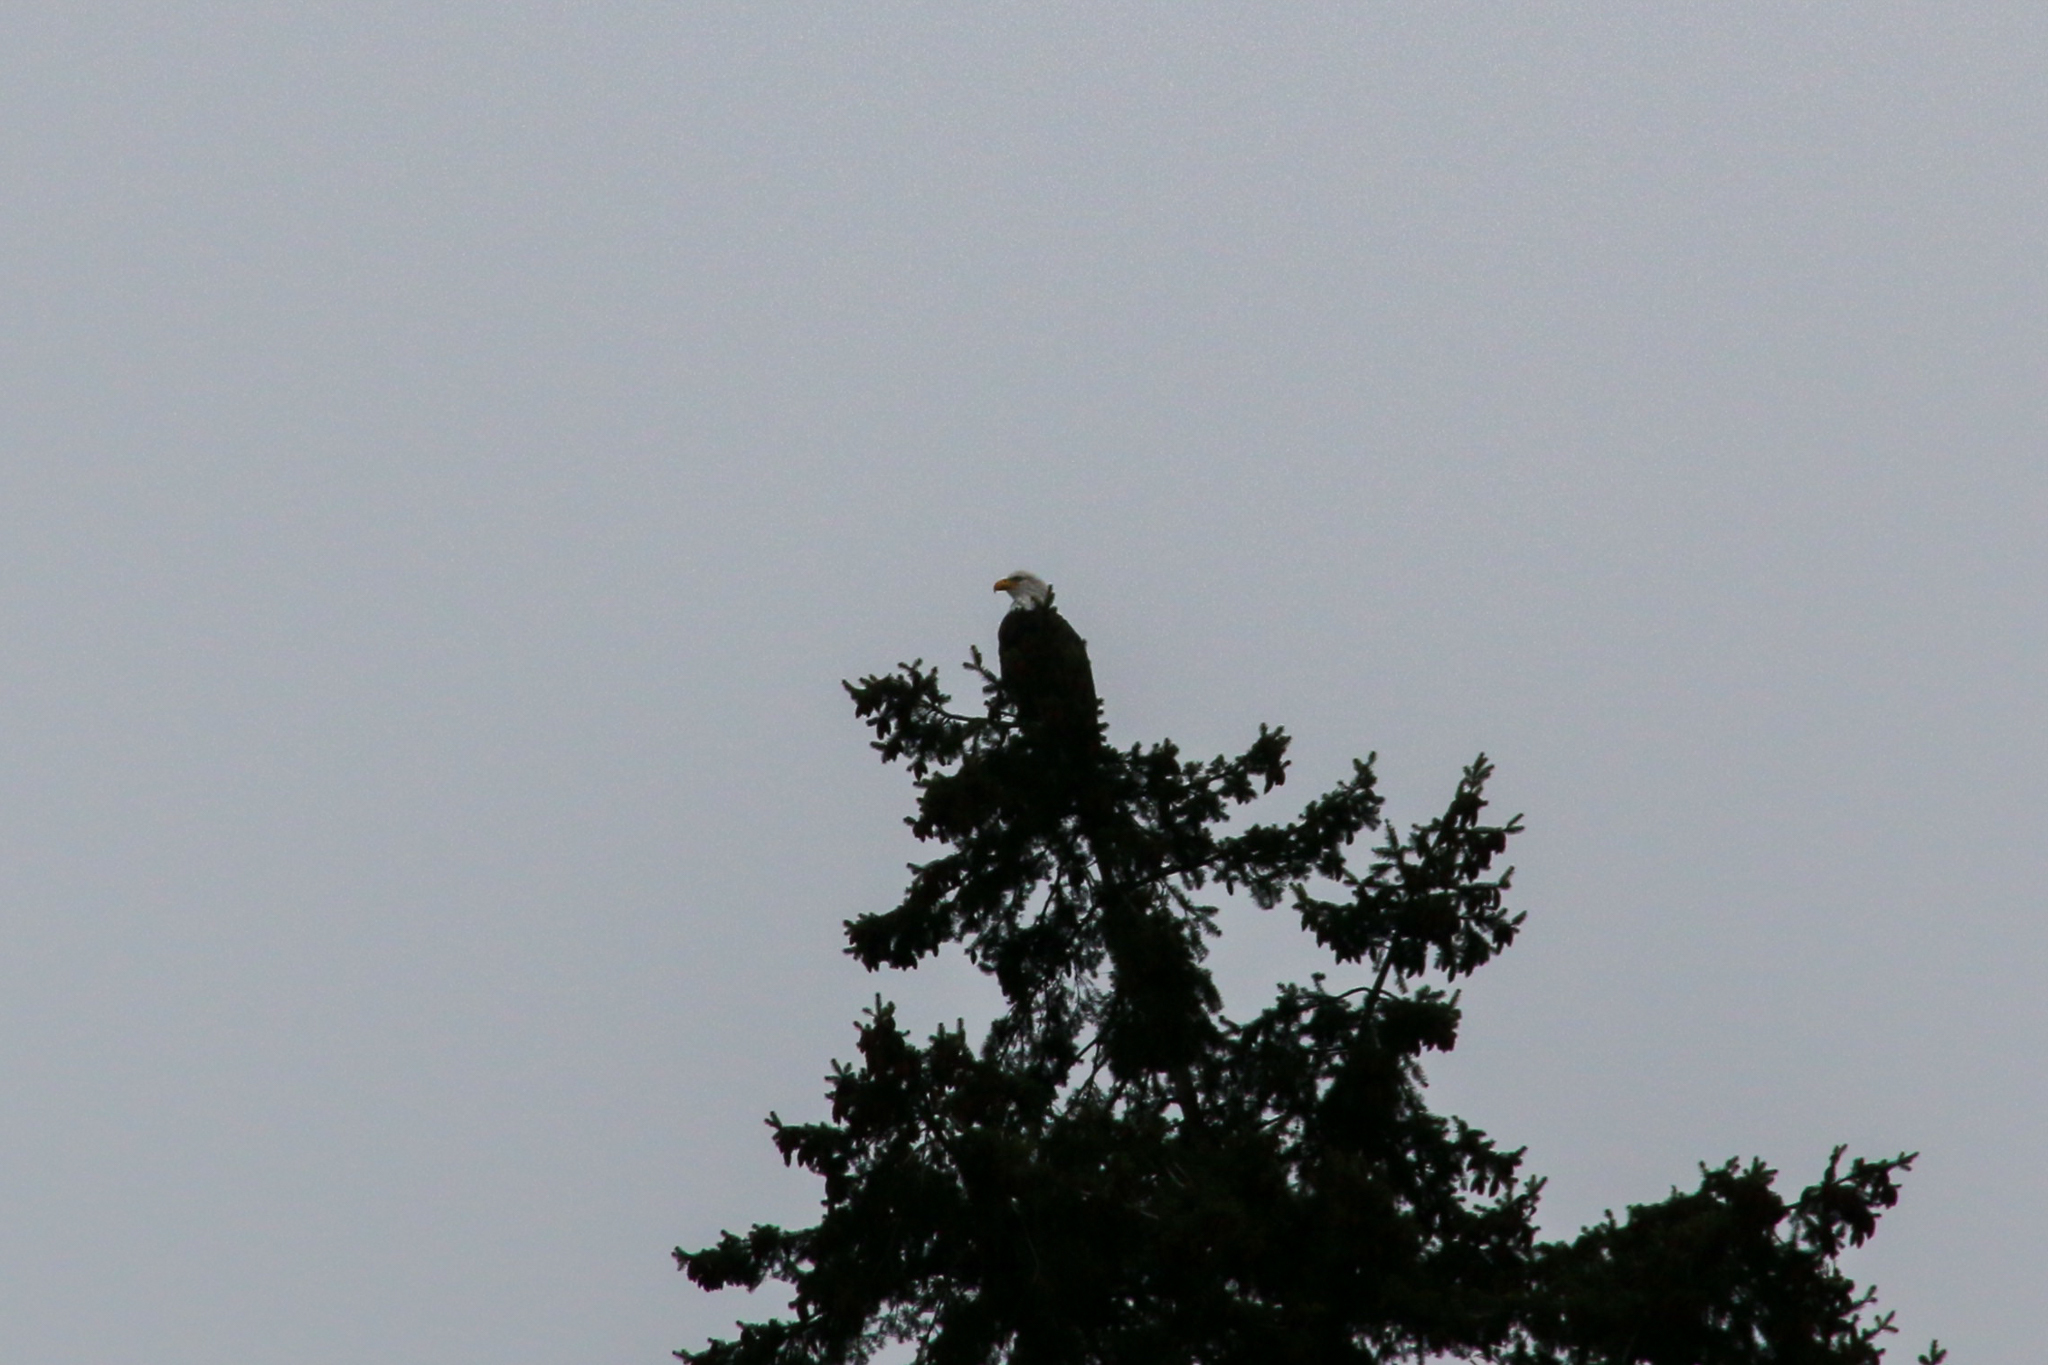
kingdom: Animalia
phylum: Chordata
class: Aves
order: Accipitriformes
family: Accipitridae
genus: Haliaeetus
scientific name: Haliaeetus leucocephalus
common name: Bald eagle
